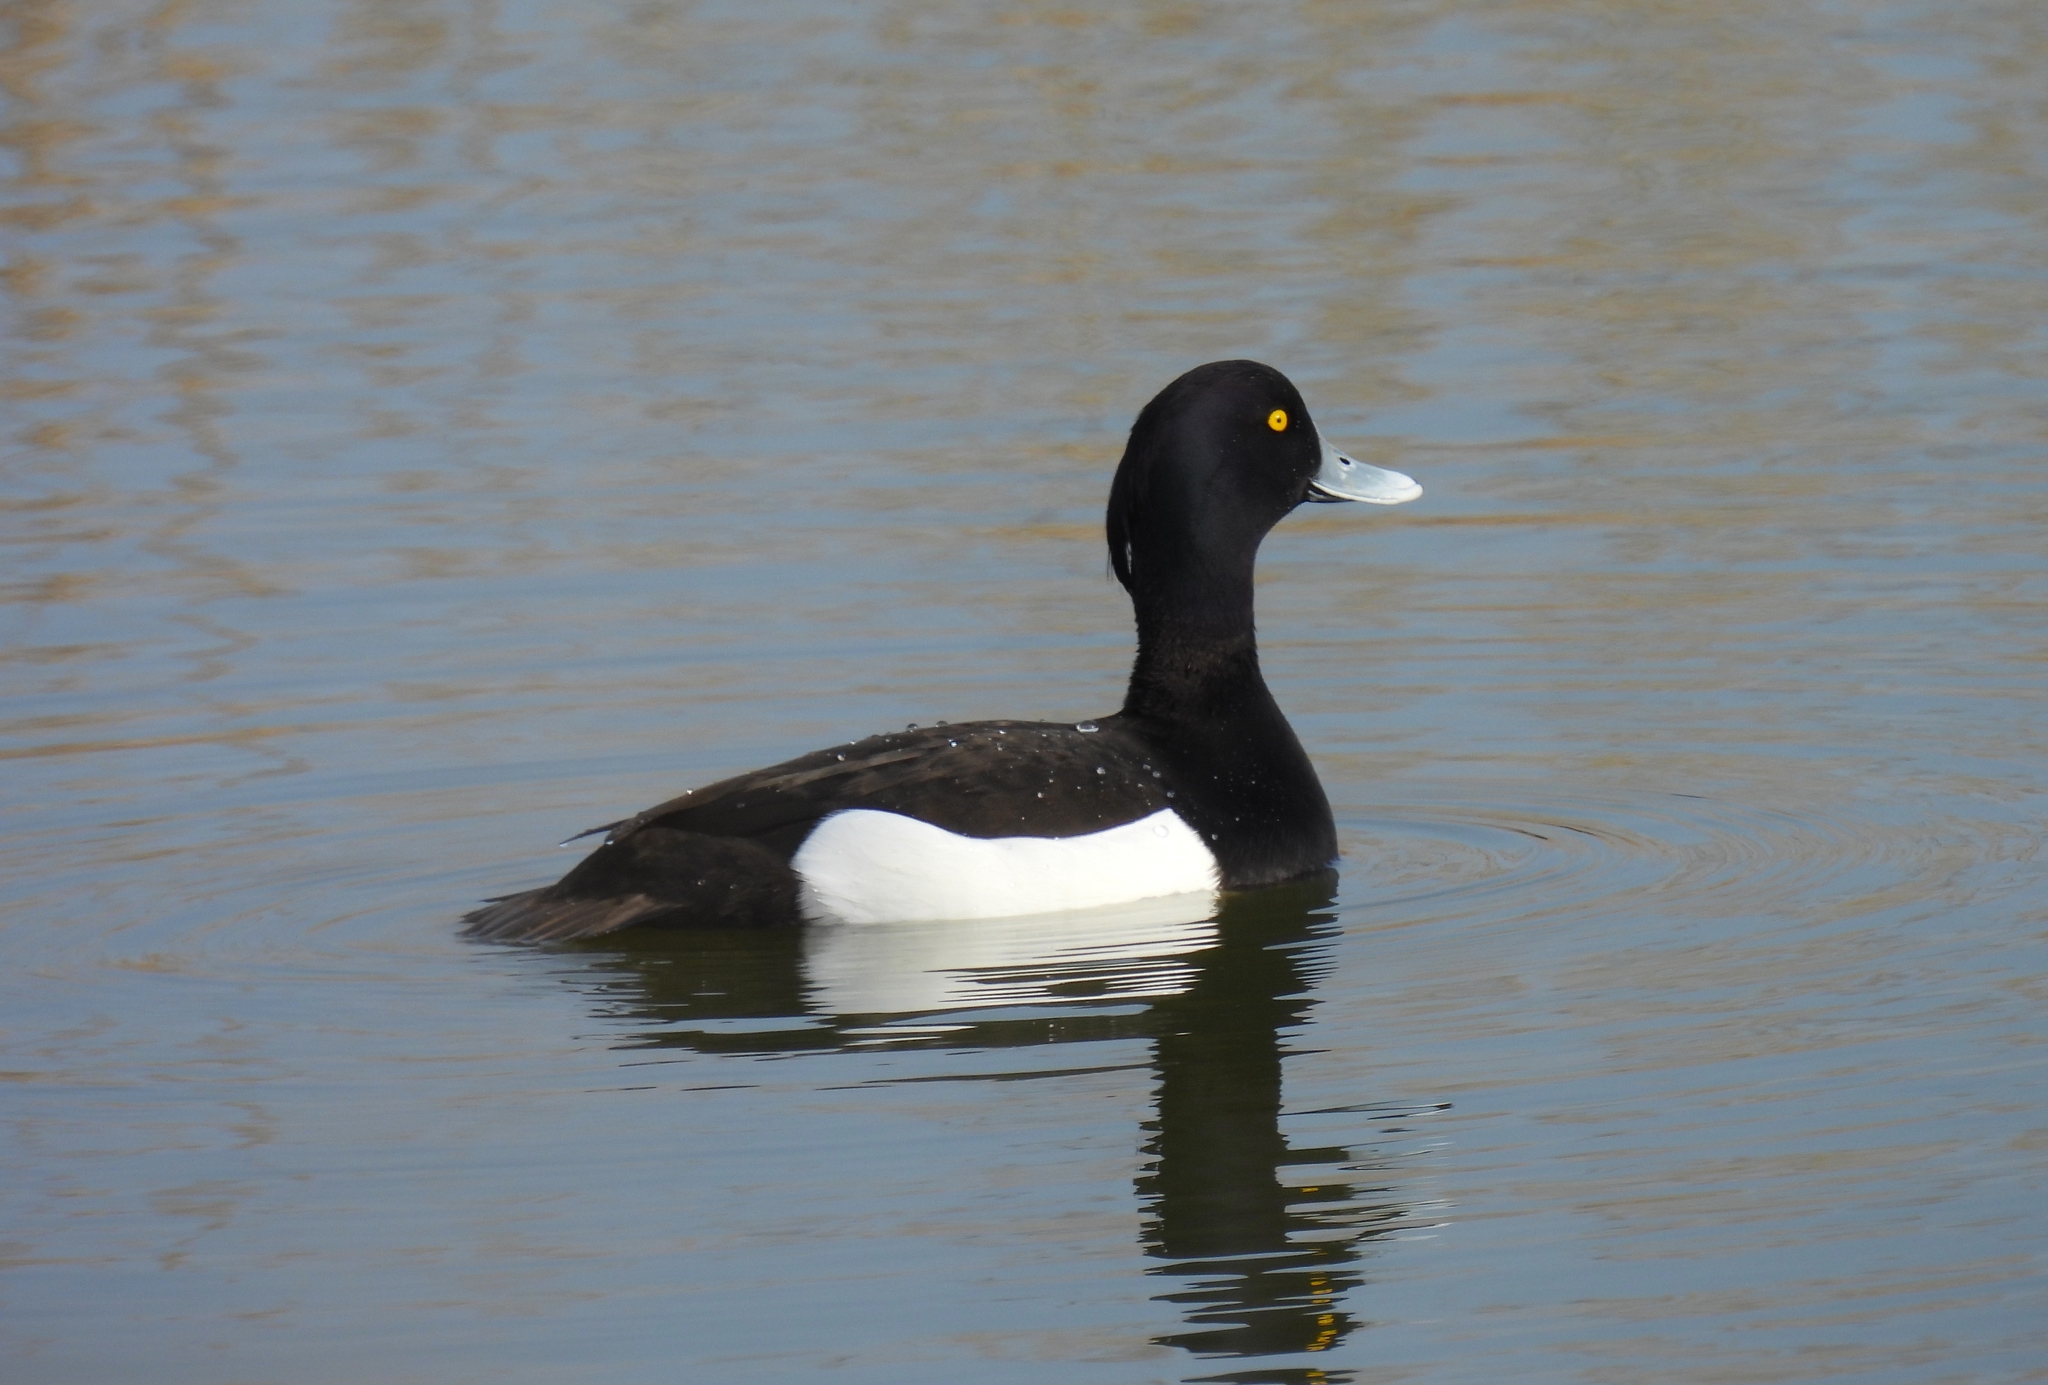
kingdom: Animalia
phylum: Chordata
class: Aves
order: Anseriformes
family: Anatidae
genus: Aythya
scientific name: Aythya fuligula
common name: Tufted duck
